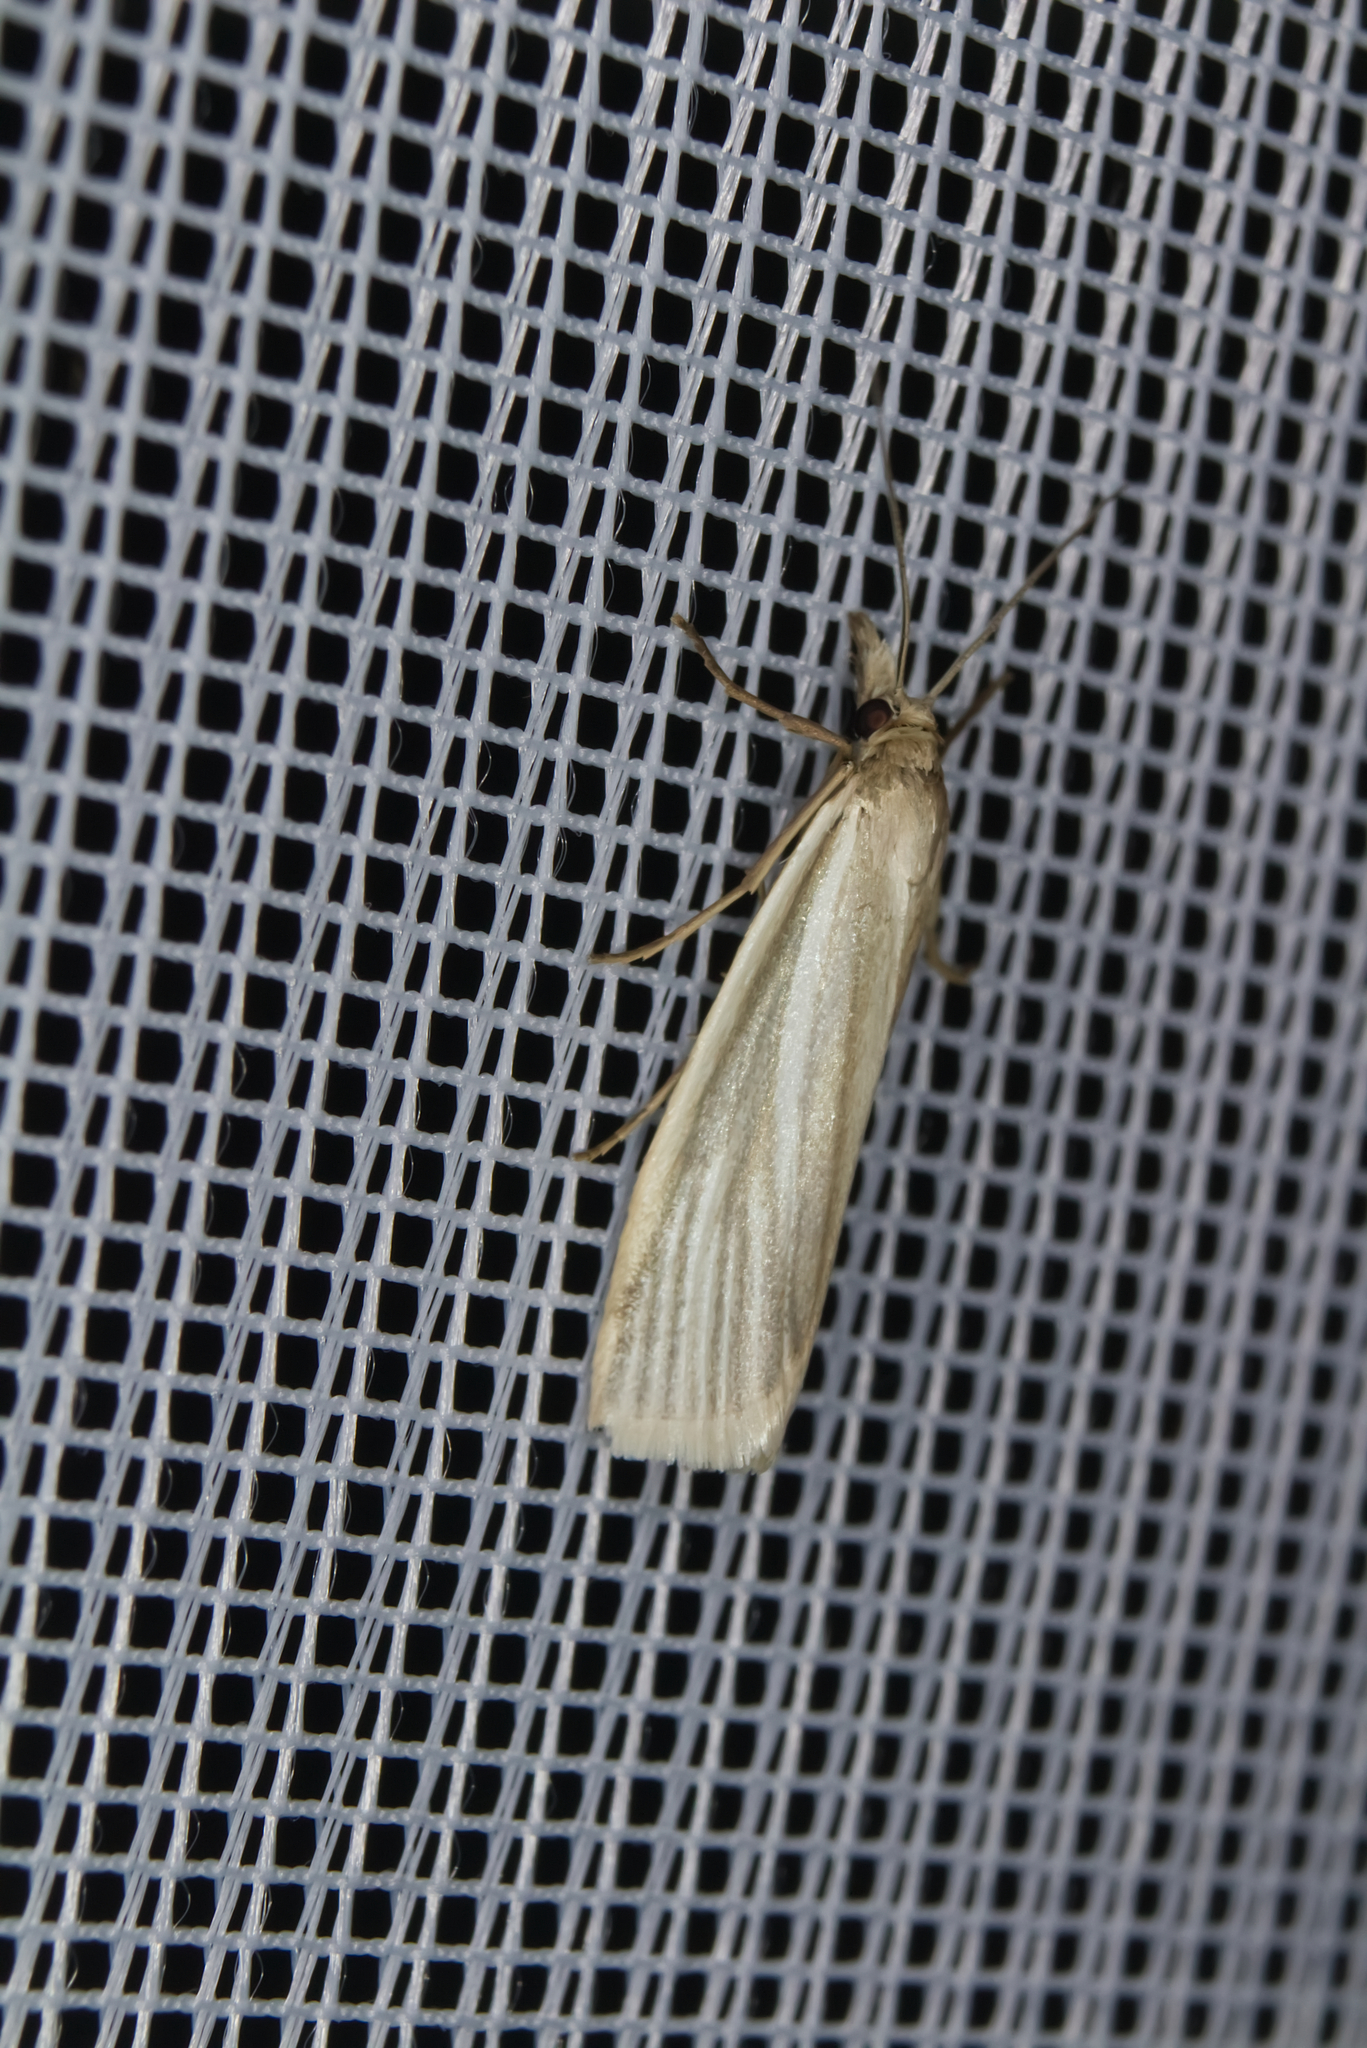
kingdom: Animalia
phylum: Arthropoda
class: Insecta
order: Lepidoptera
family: Crambidae
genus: Crambus
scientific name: Crambus perlellus
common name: Yellow satin veneer
